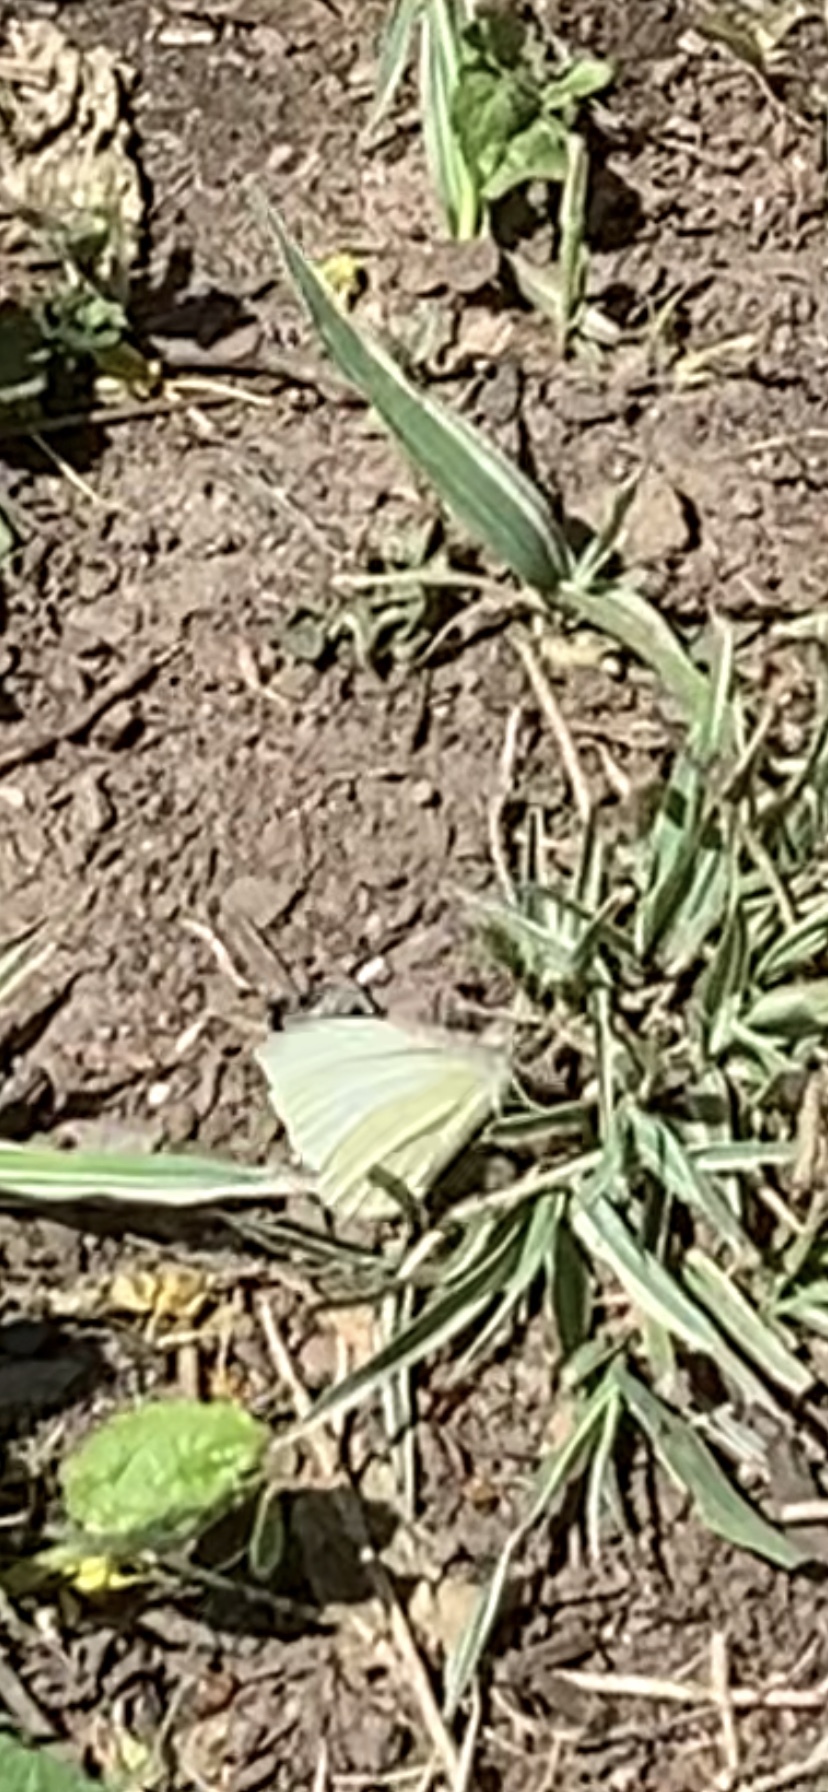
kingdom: Animalia
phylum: Arthropoda
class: Insecta
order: Lepidoptera
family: Pieridae
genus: Pieris
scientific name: Pieris rapae
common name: Small white
